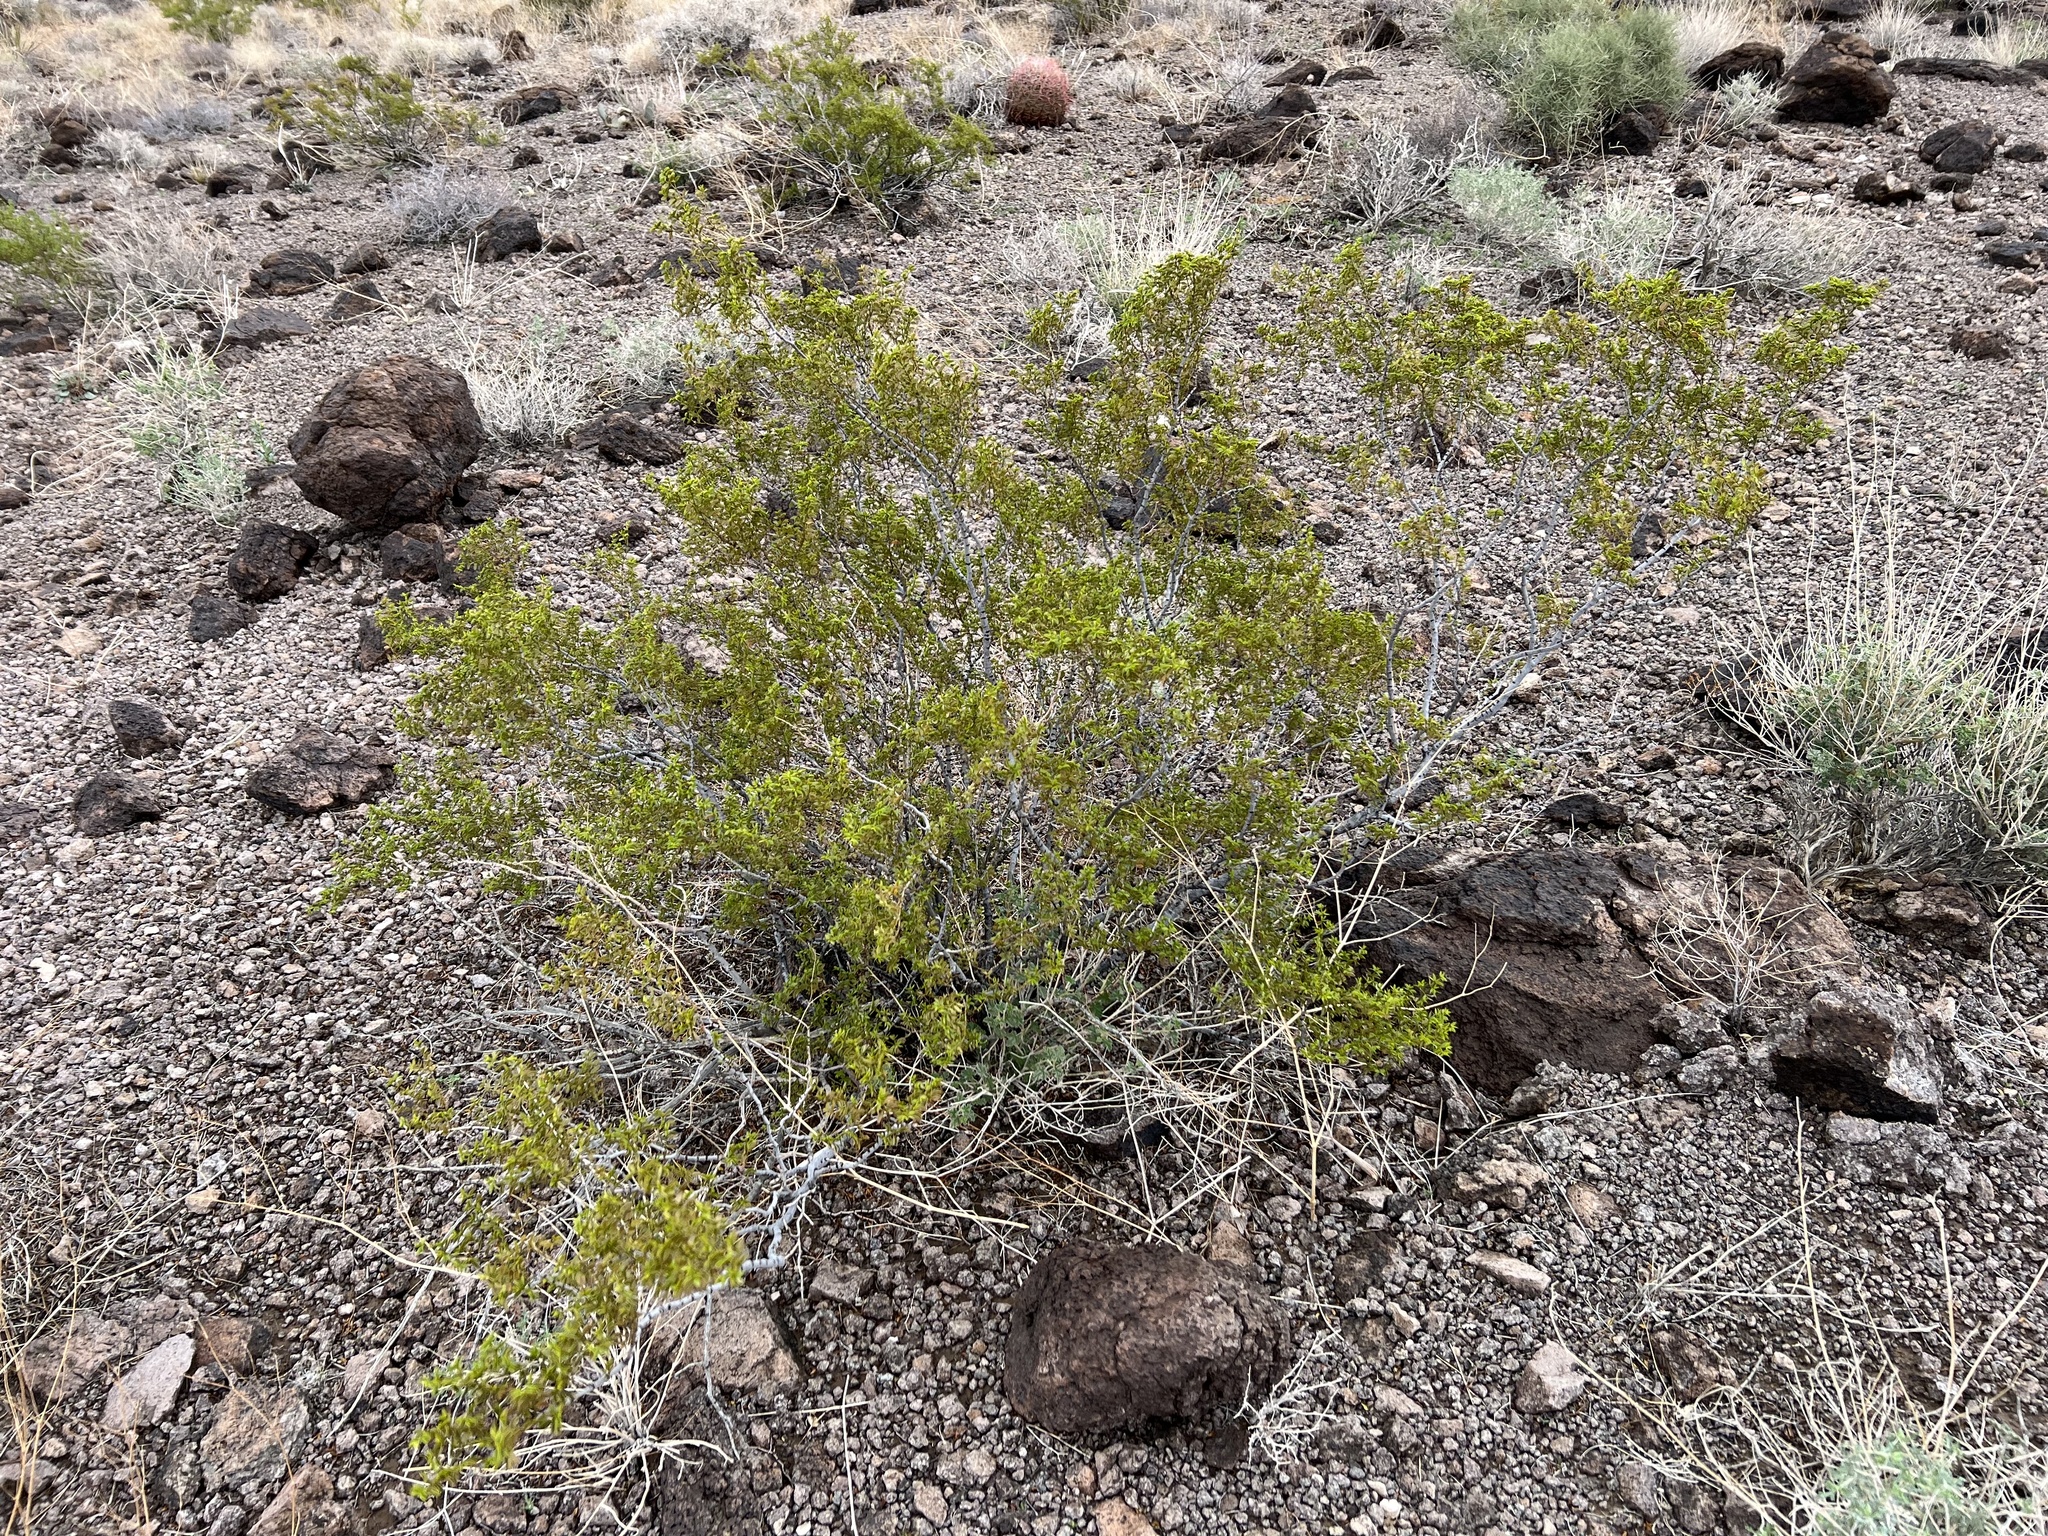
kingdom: Plantae
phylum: Tracheophyta
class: Magnoliopsida
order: Zygophyllales
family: Zygophyllaceae
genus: Larrea
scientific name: Larrea tridentata
